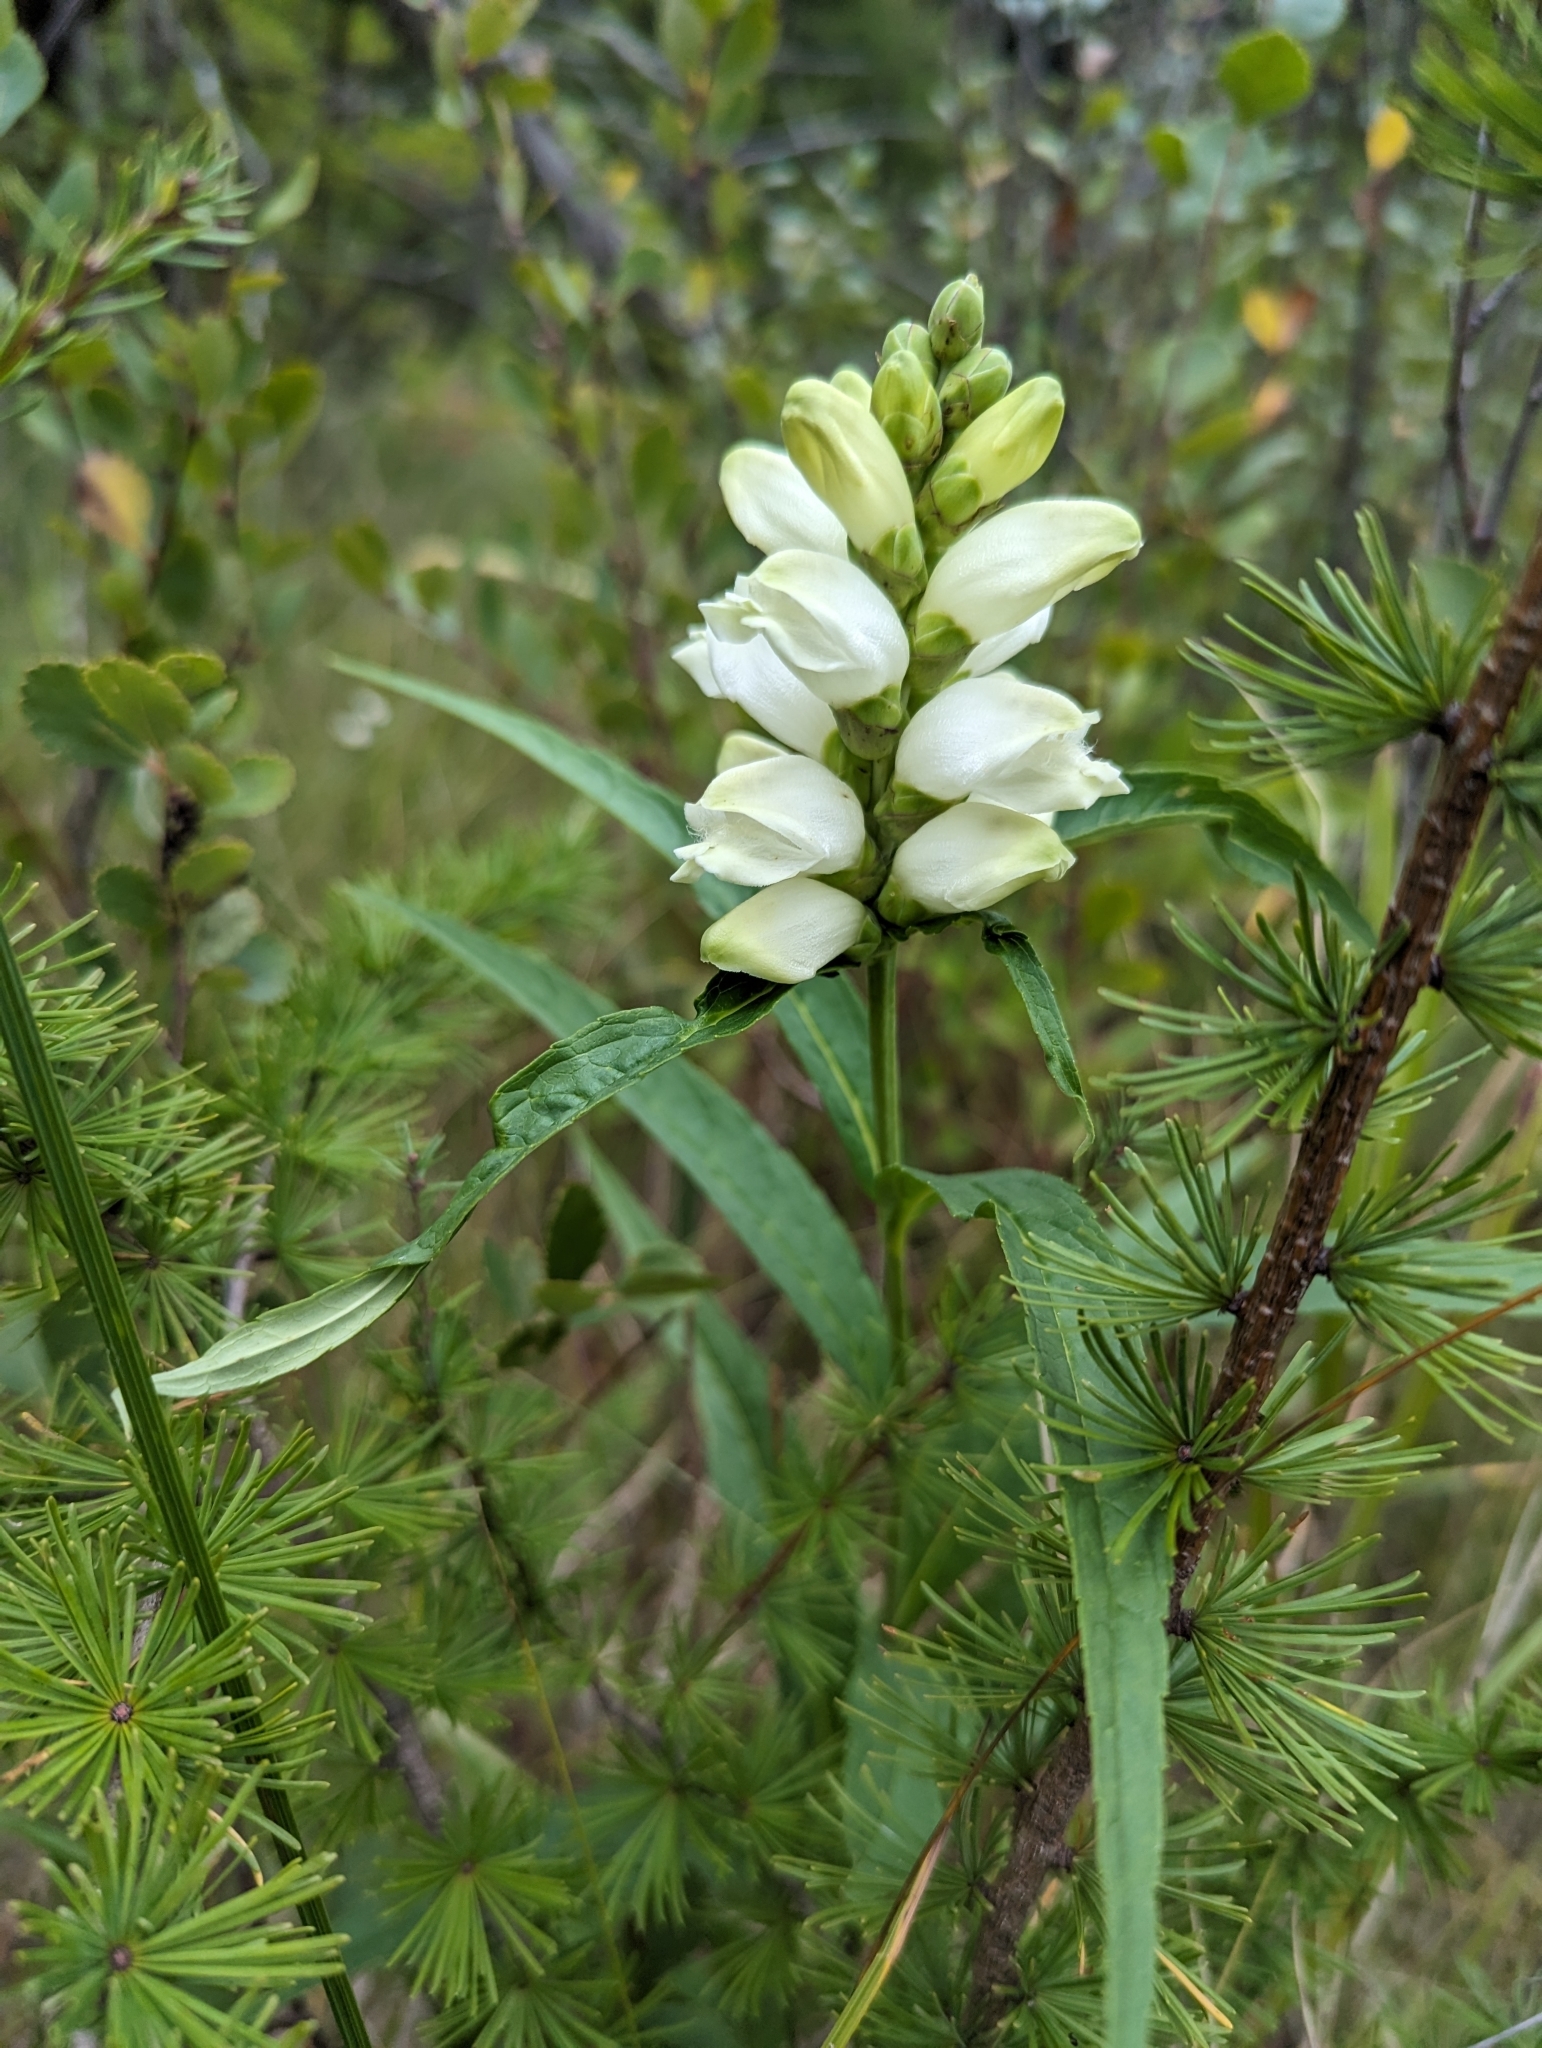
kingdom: Plantae
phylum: Tracheophyta
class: Magnoliopsida
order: Lamiales
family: Plantaginaceae
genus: Chelone
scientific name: Chelone glabra
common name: Snakehead
